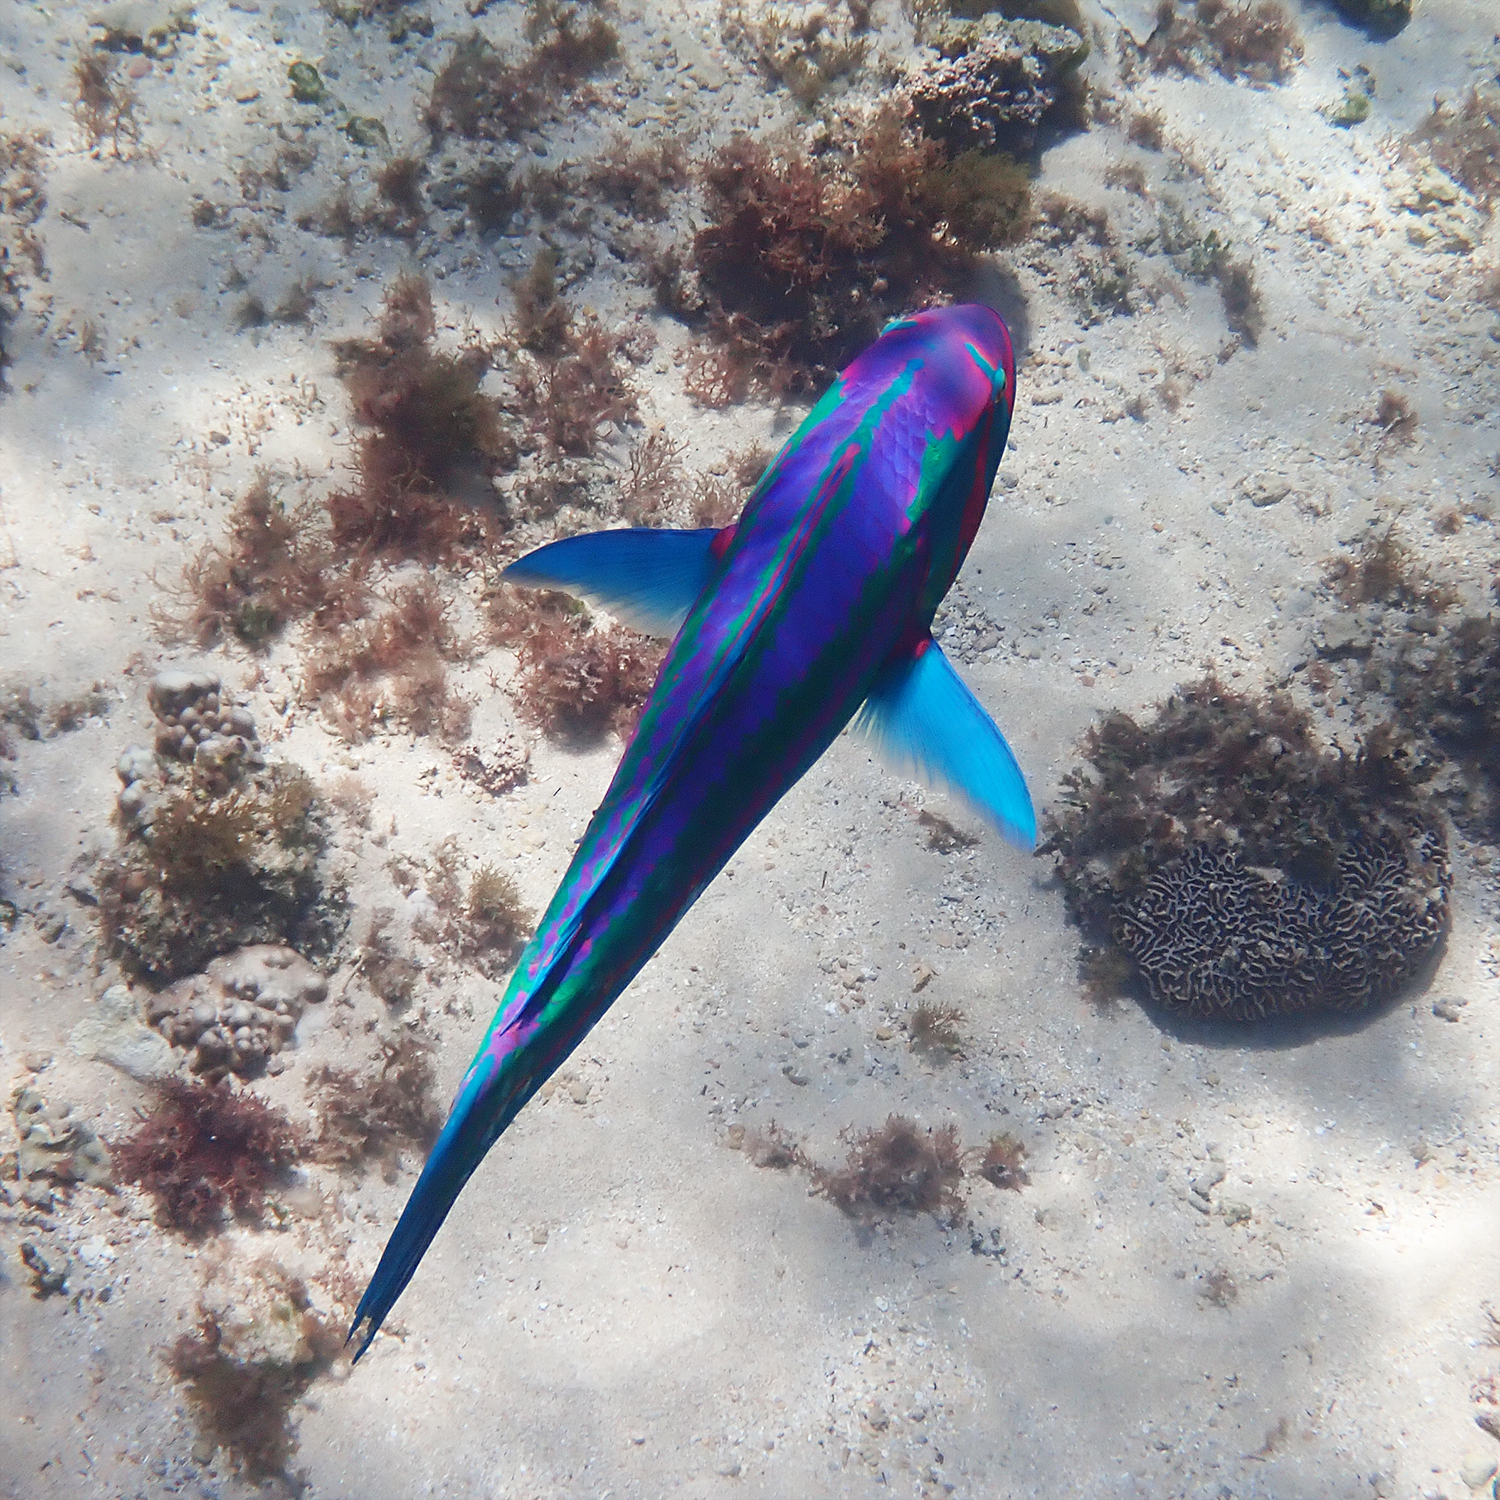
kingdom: Animalia
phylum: Chordata
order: Perciformes
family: Labridae
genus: Thalassoma
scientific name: Thalassoma purpureum
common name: Parrotfish
